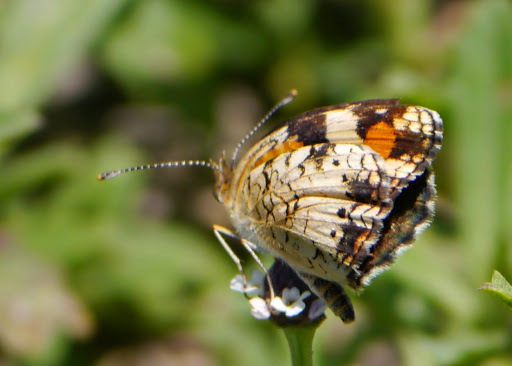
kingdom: Animalia
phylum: Arthropoda
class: Insecta
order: Lepidoptera
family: Nymphalidae
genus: Phyciodes
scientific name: Phyciodes phaon
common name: Phaon crescent
